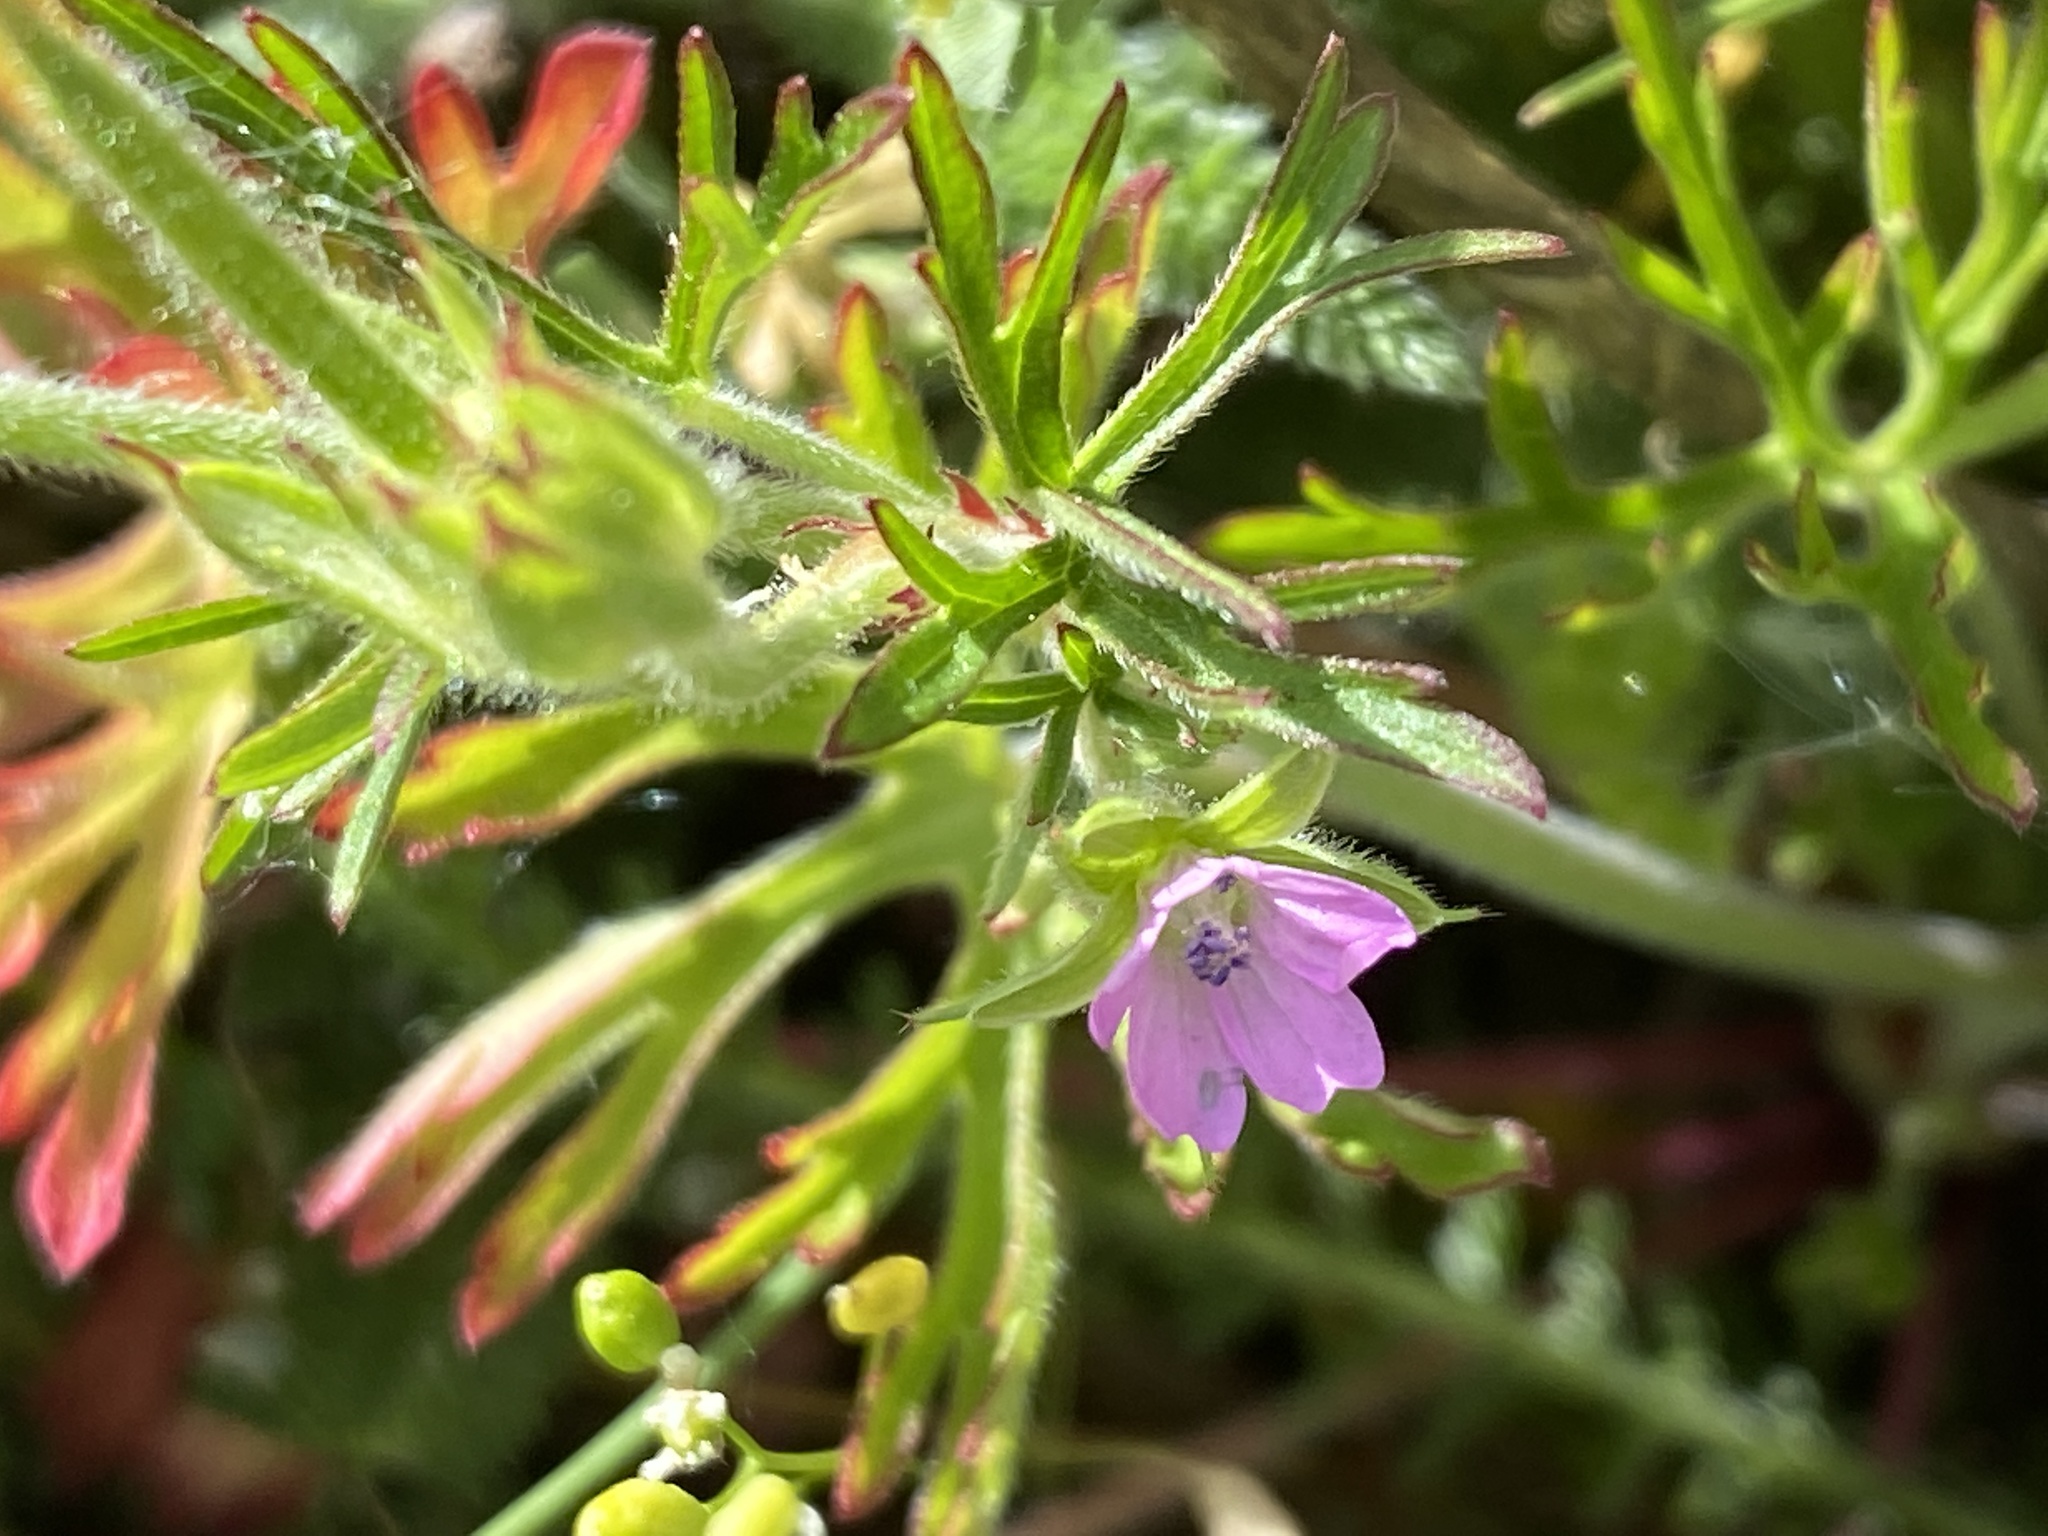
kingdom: Plantae
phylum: Tracheophyta
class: Magnoliopsida
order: Geraniales
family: Geraniaceae
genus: Geranium
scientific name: Geranium dissectum
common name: Cut-leaved crane's-bill
